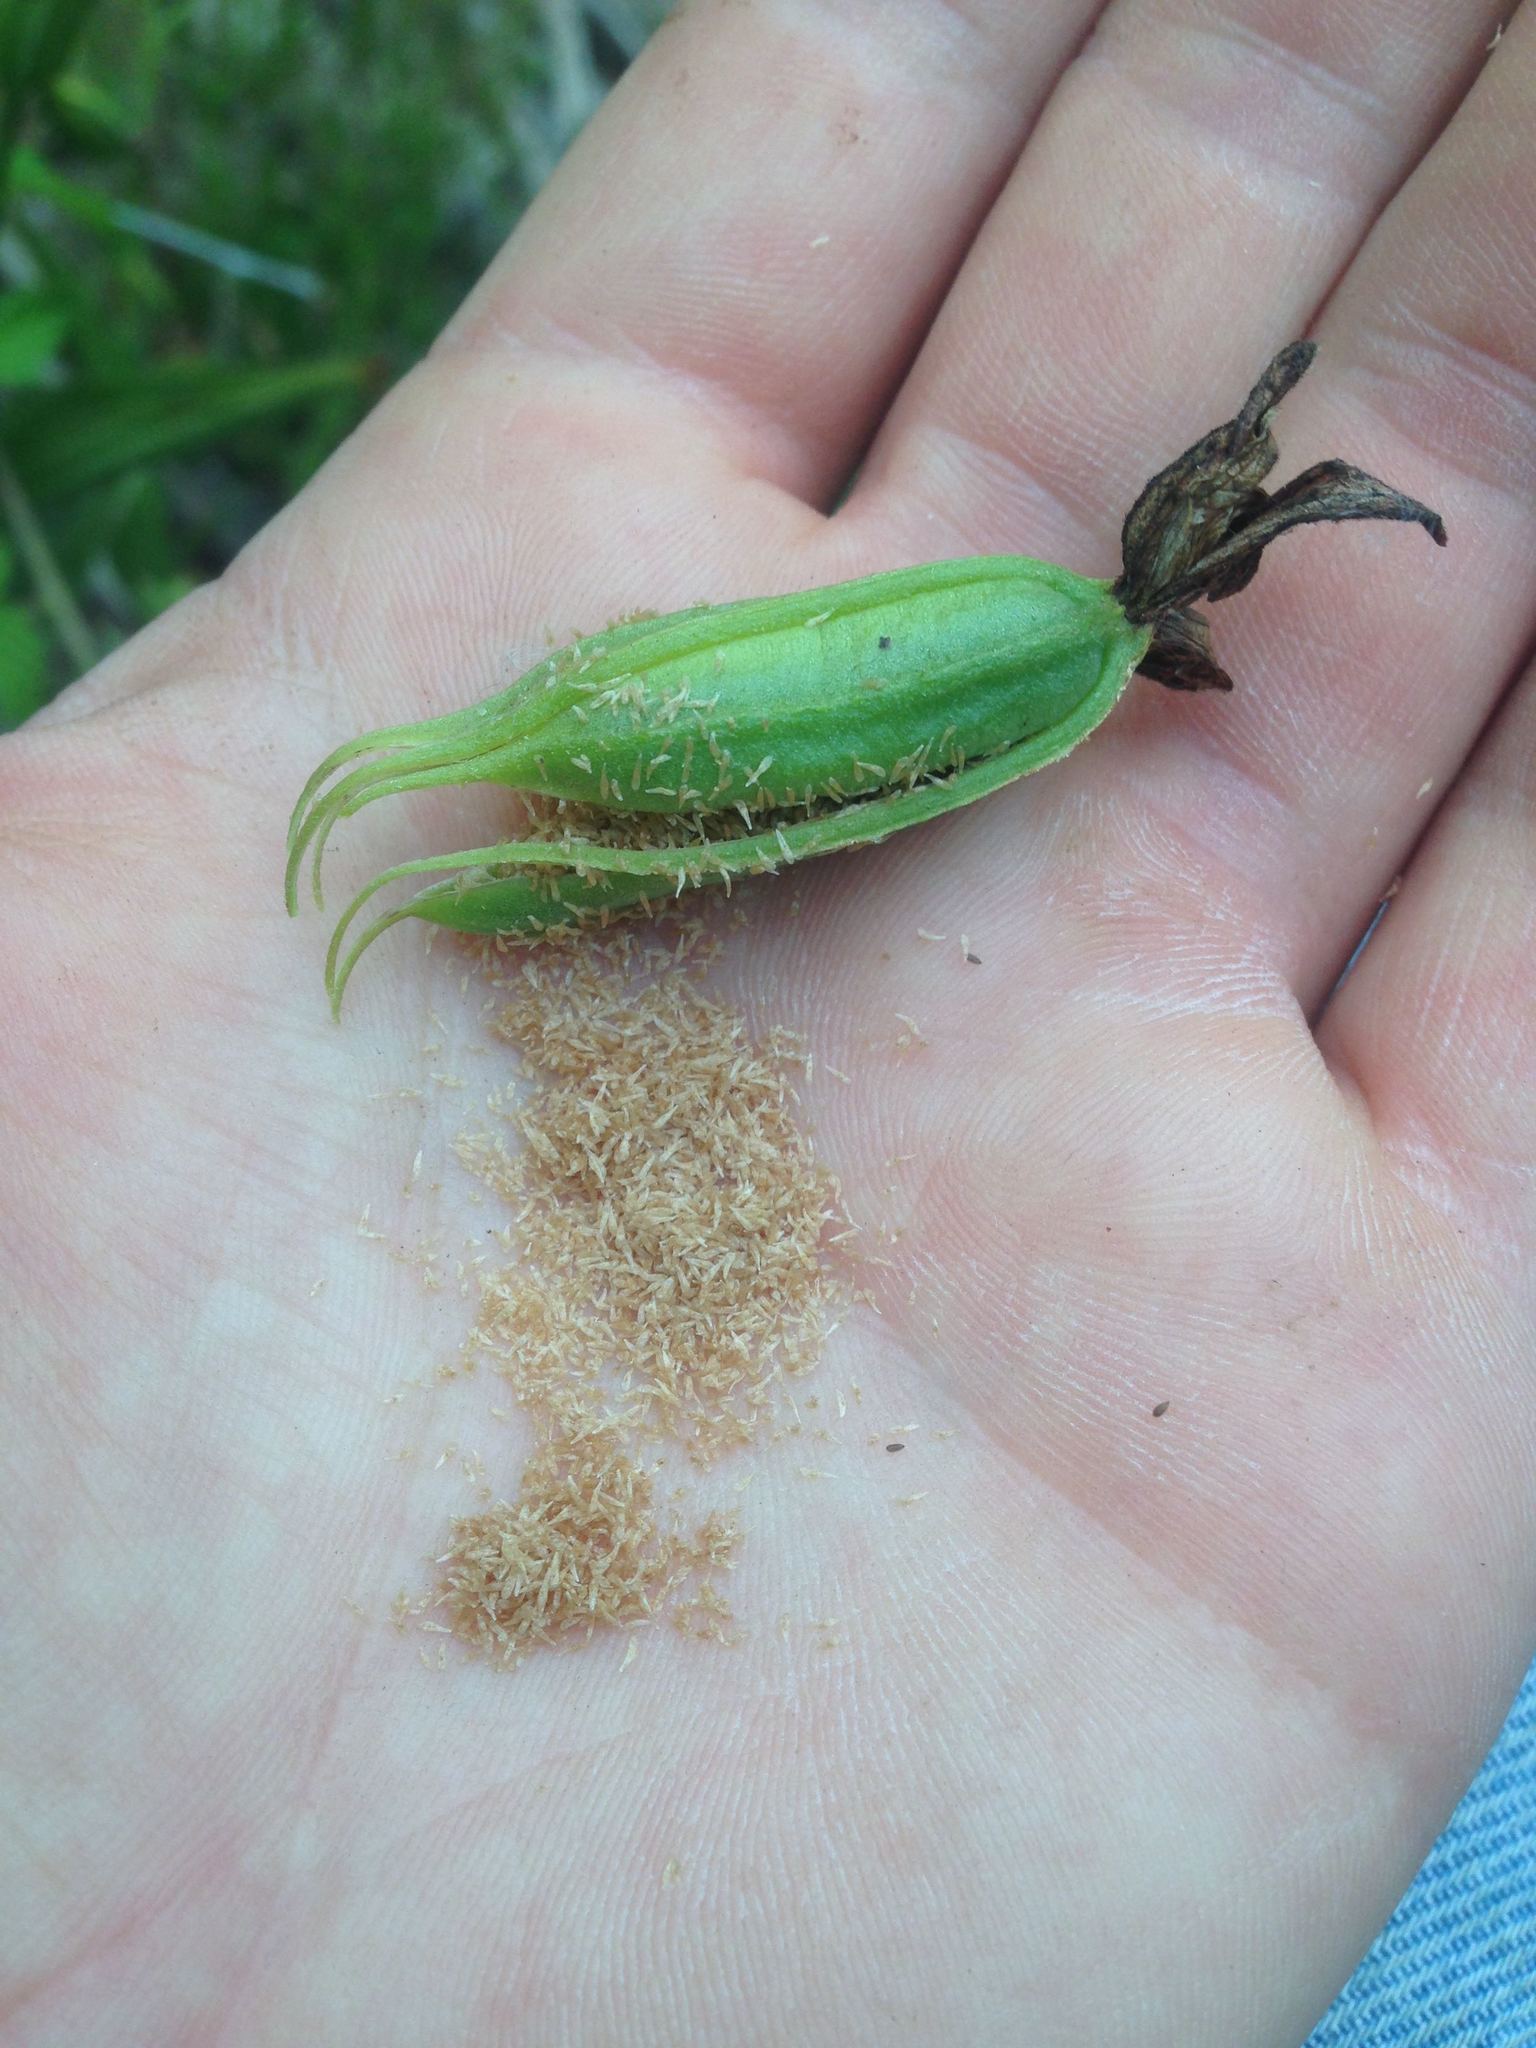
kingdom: Plantae
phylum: Tracheophyta
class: Liliopsida
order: Asparagales
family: Orchidaceae
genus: Epipactis
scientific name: Epipactis gigantea
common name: Chatterbox
